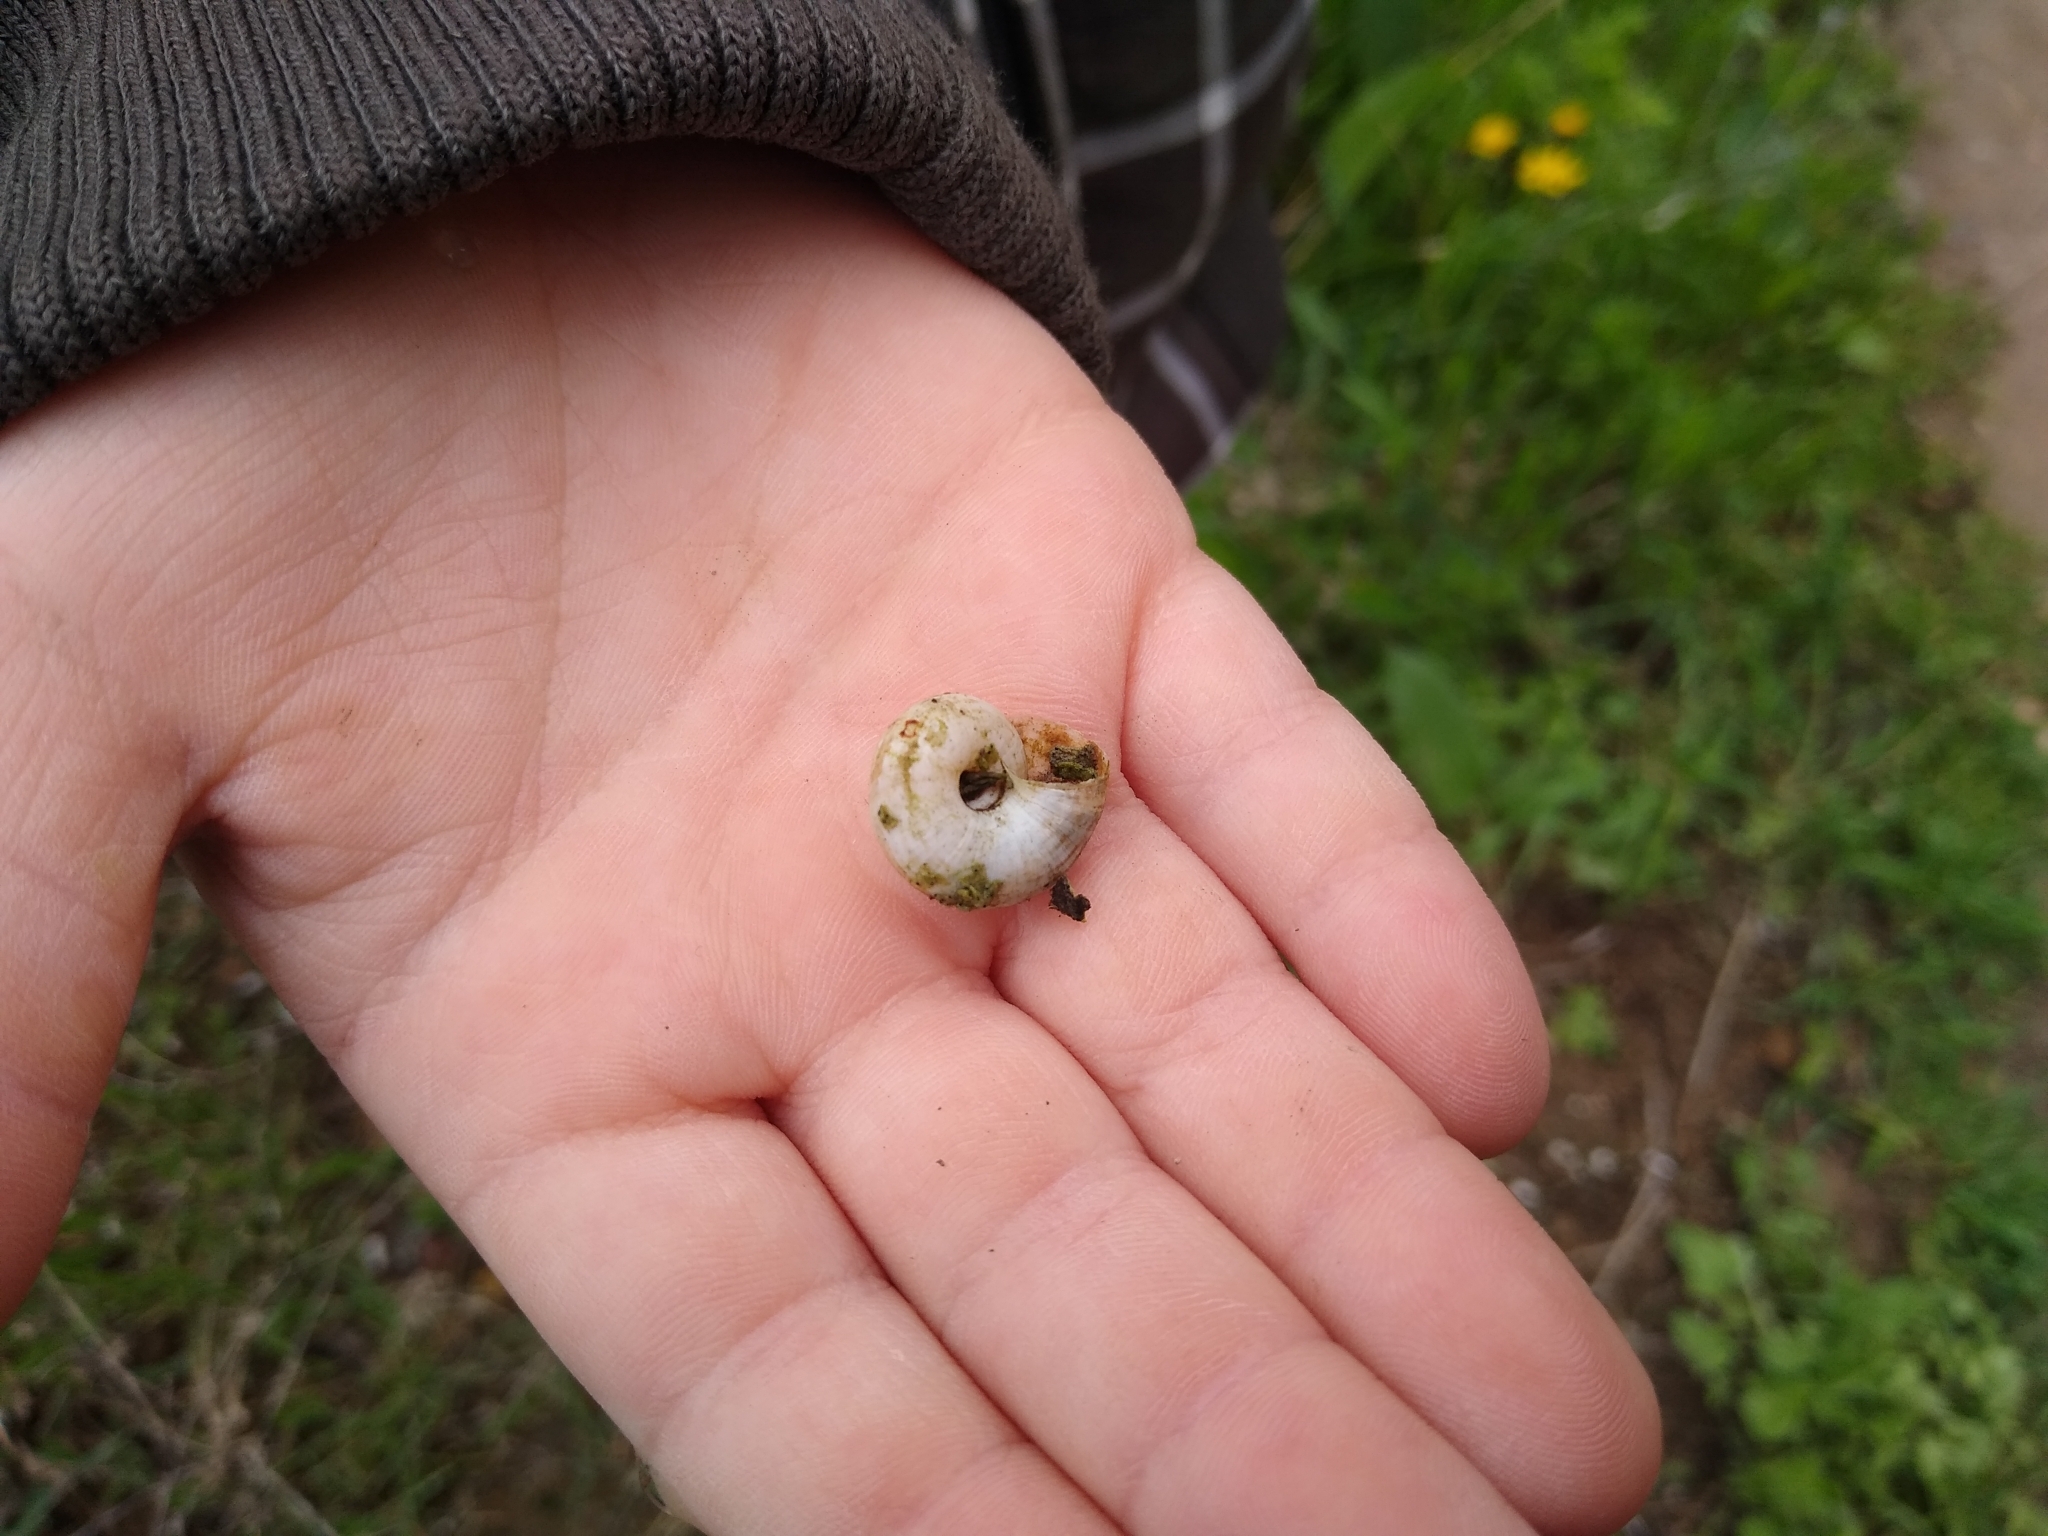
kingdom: Animalia
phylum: Mollusca
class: Gastropoda
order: Stylommatophora
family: Geomitridae
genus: Xeropicta
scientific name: Xeropicta derbentina
